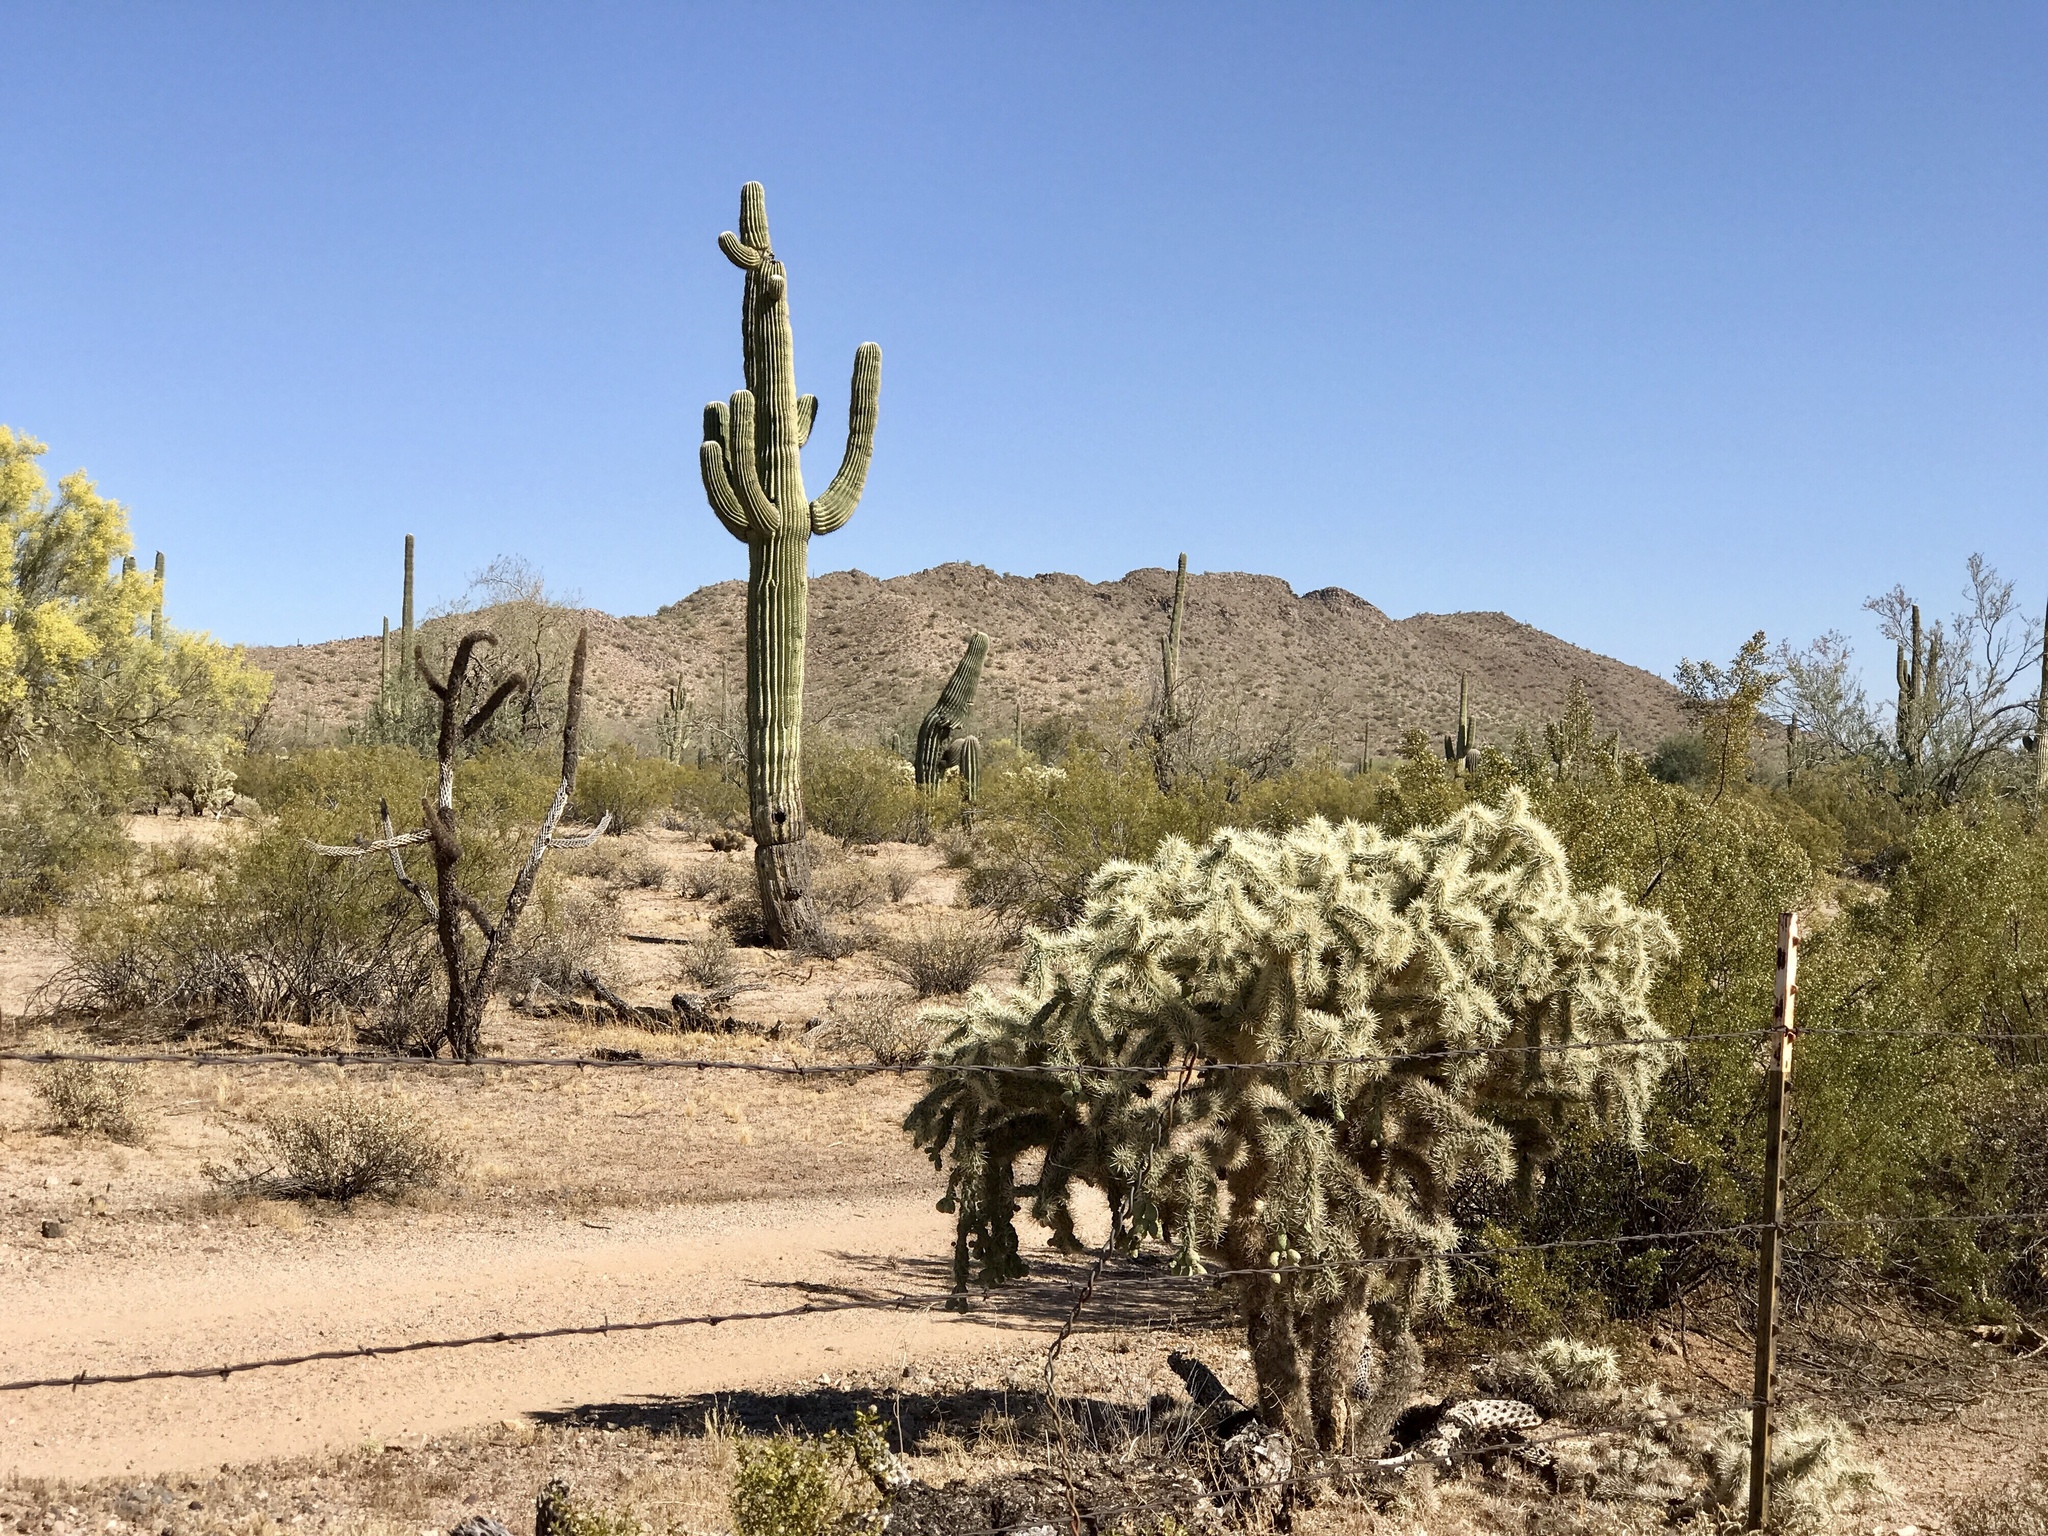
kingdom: Plantae
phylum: Tracheophyta
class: Magnoliopsida
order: Caryophyllales
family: Cactaceae
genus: Cylindropuntia
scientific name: Cylindropuntia fulgida
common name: Jumping cholla
